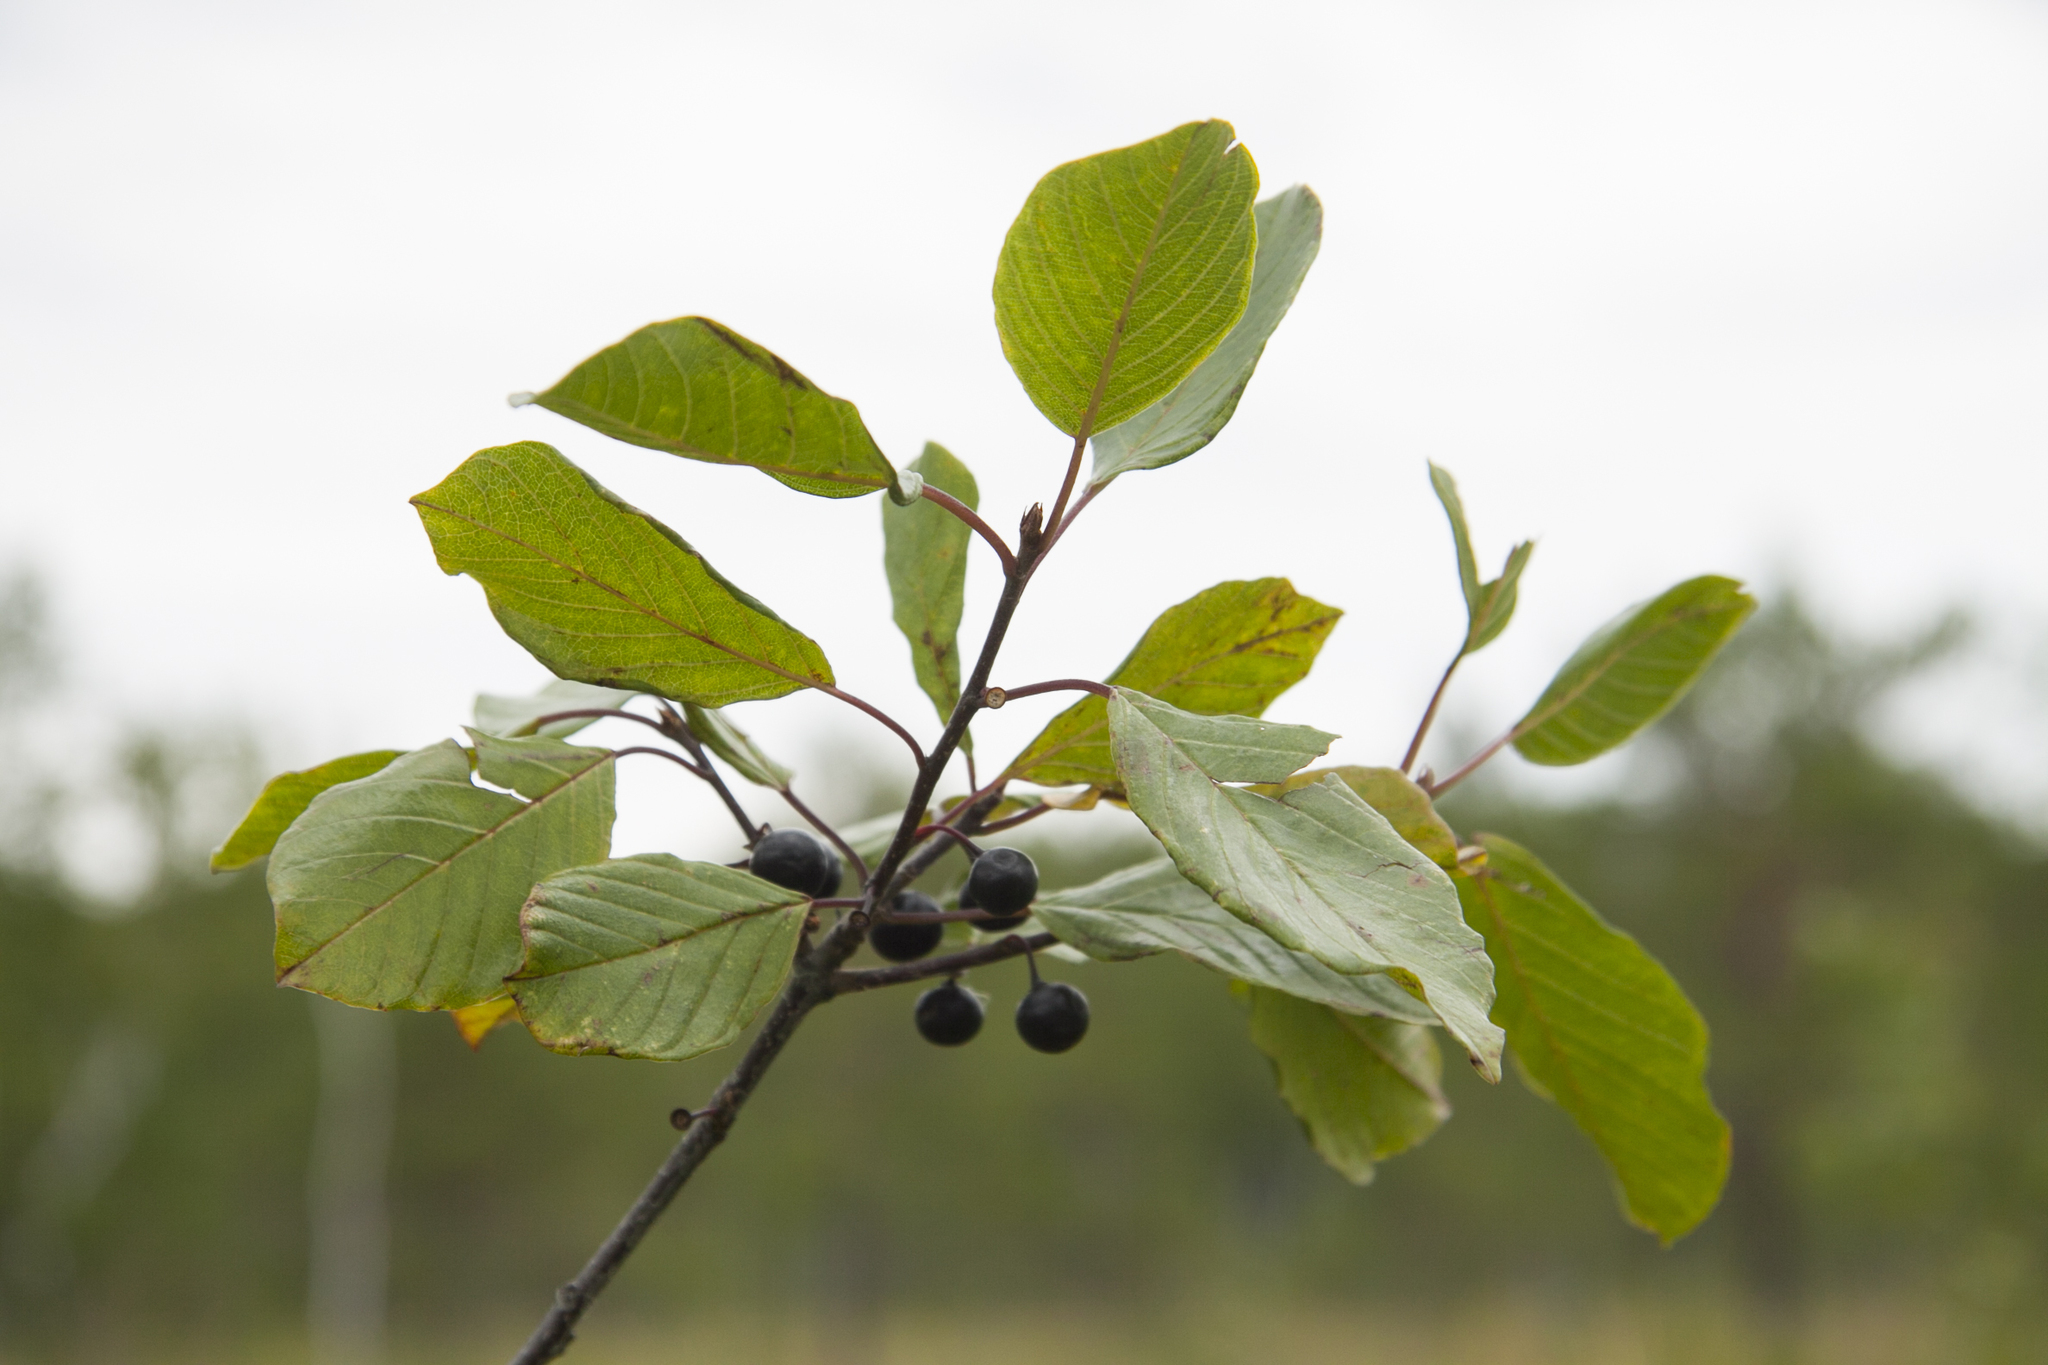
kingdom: Plantae
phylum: Tracheophyta
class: Magnoliopsida
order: Rosales
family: Rhamnaceae
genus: Frangula
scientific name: Frangula alnus
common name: Alder buckthorn
